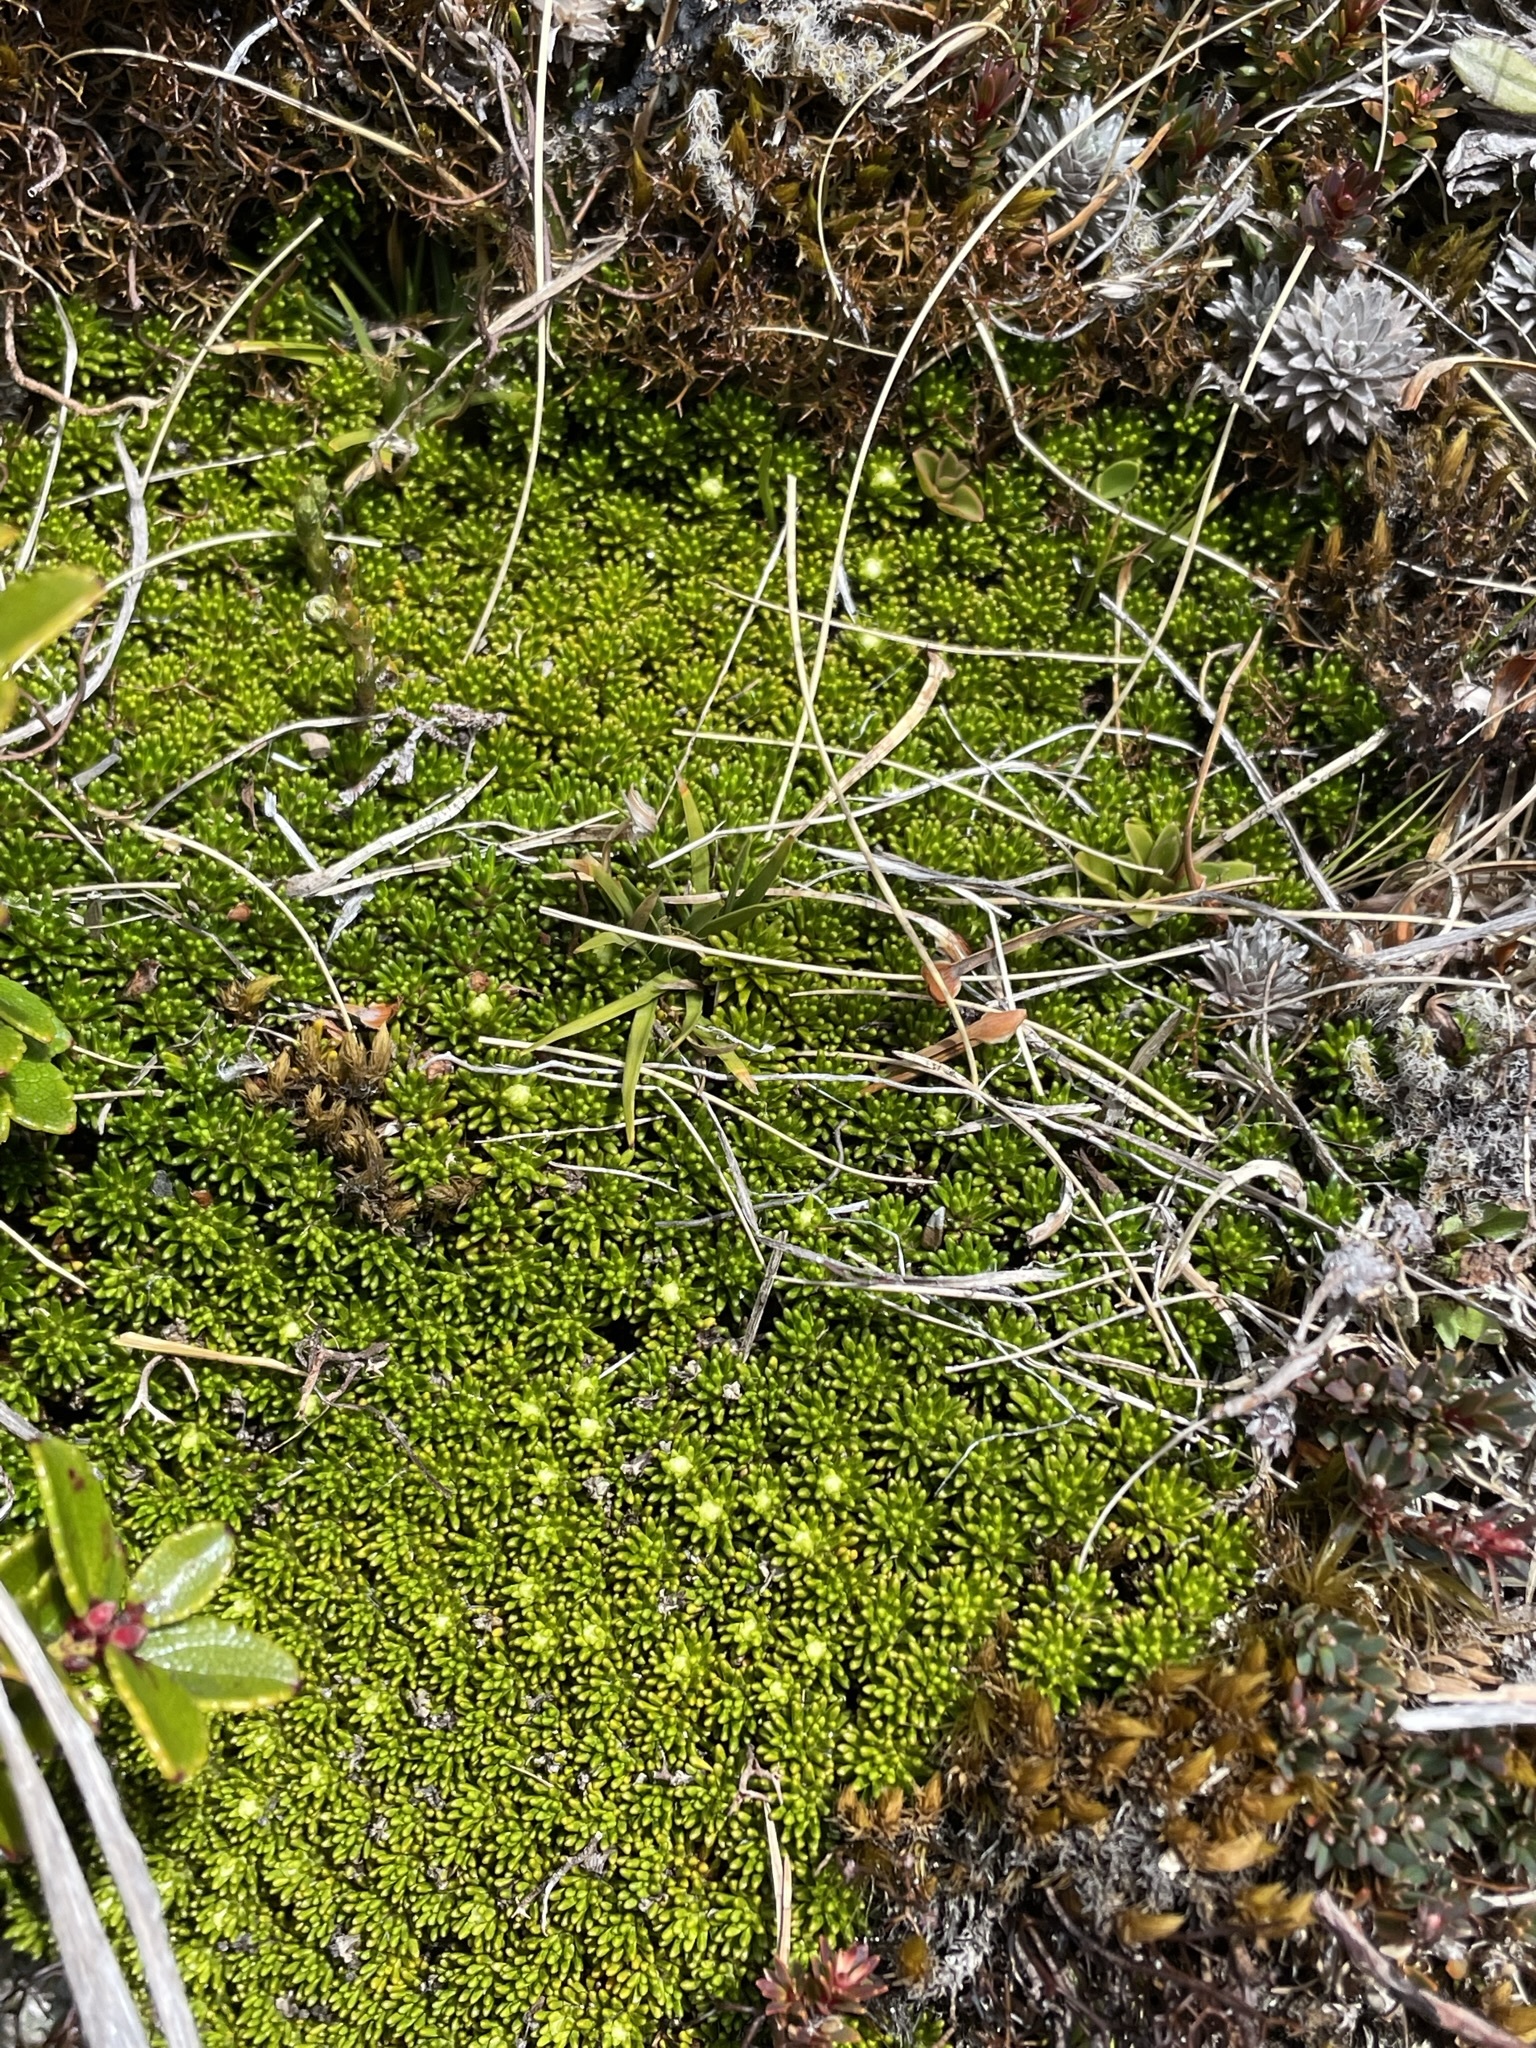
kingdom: Plantae
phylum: Tracheophyta
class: Magnoliopsida
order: Asterales
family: Stylidiaceae
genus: Phyllachne
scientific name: Phyllachne colensoi
